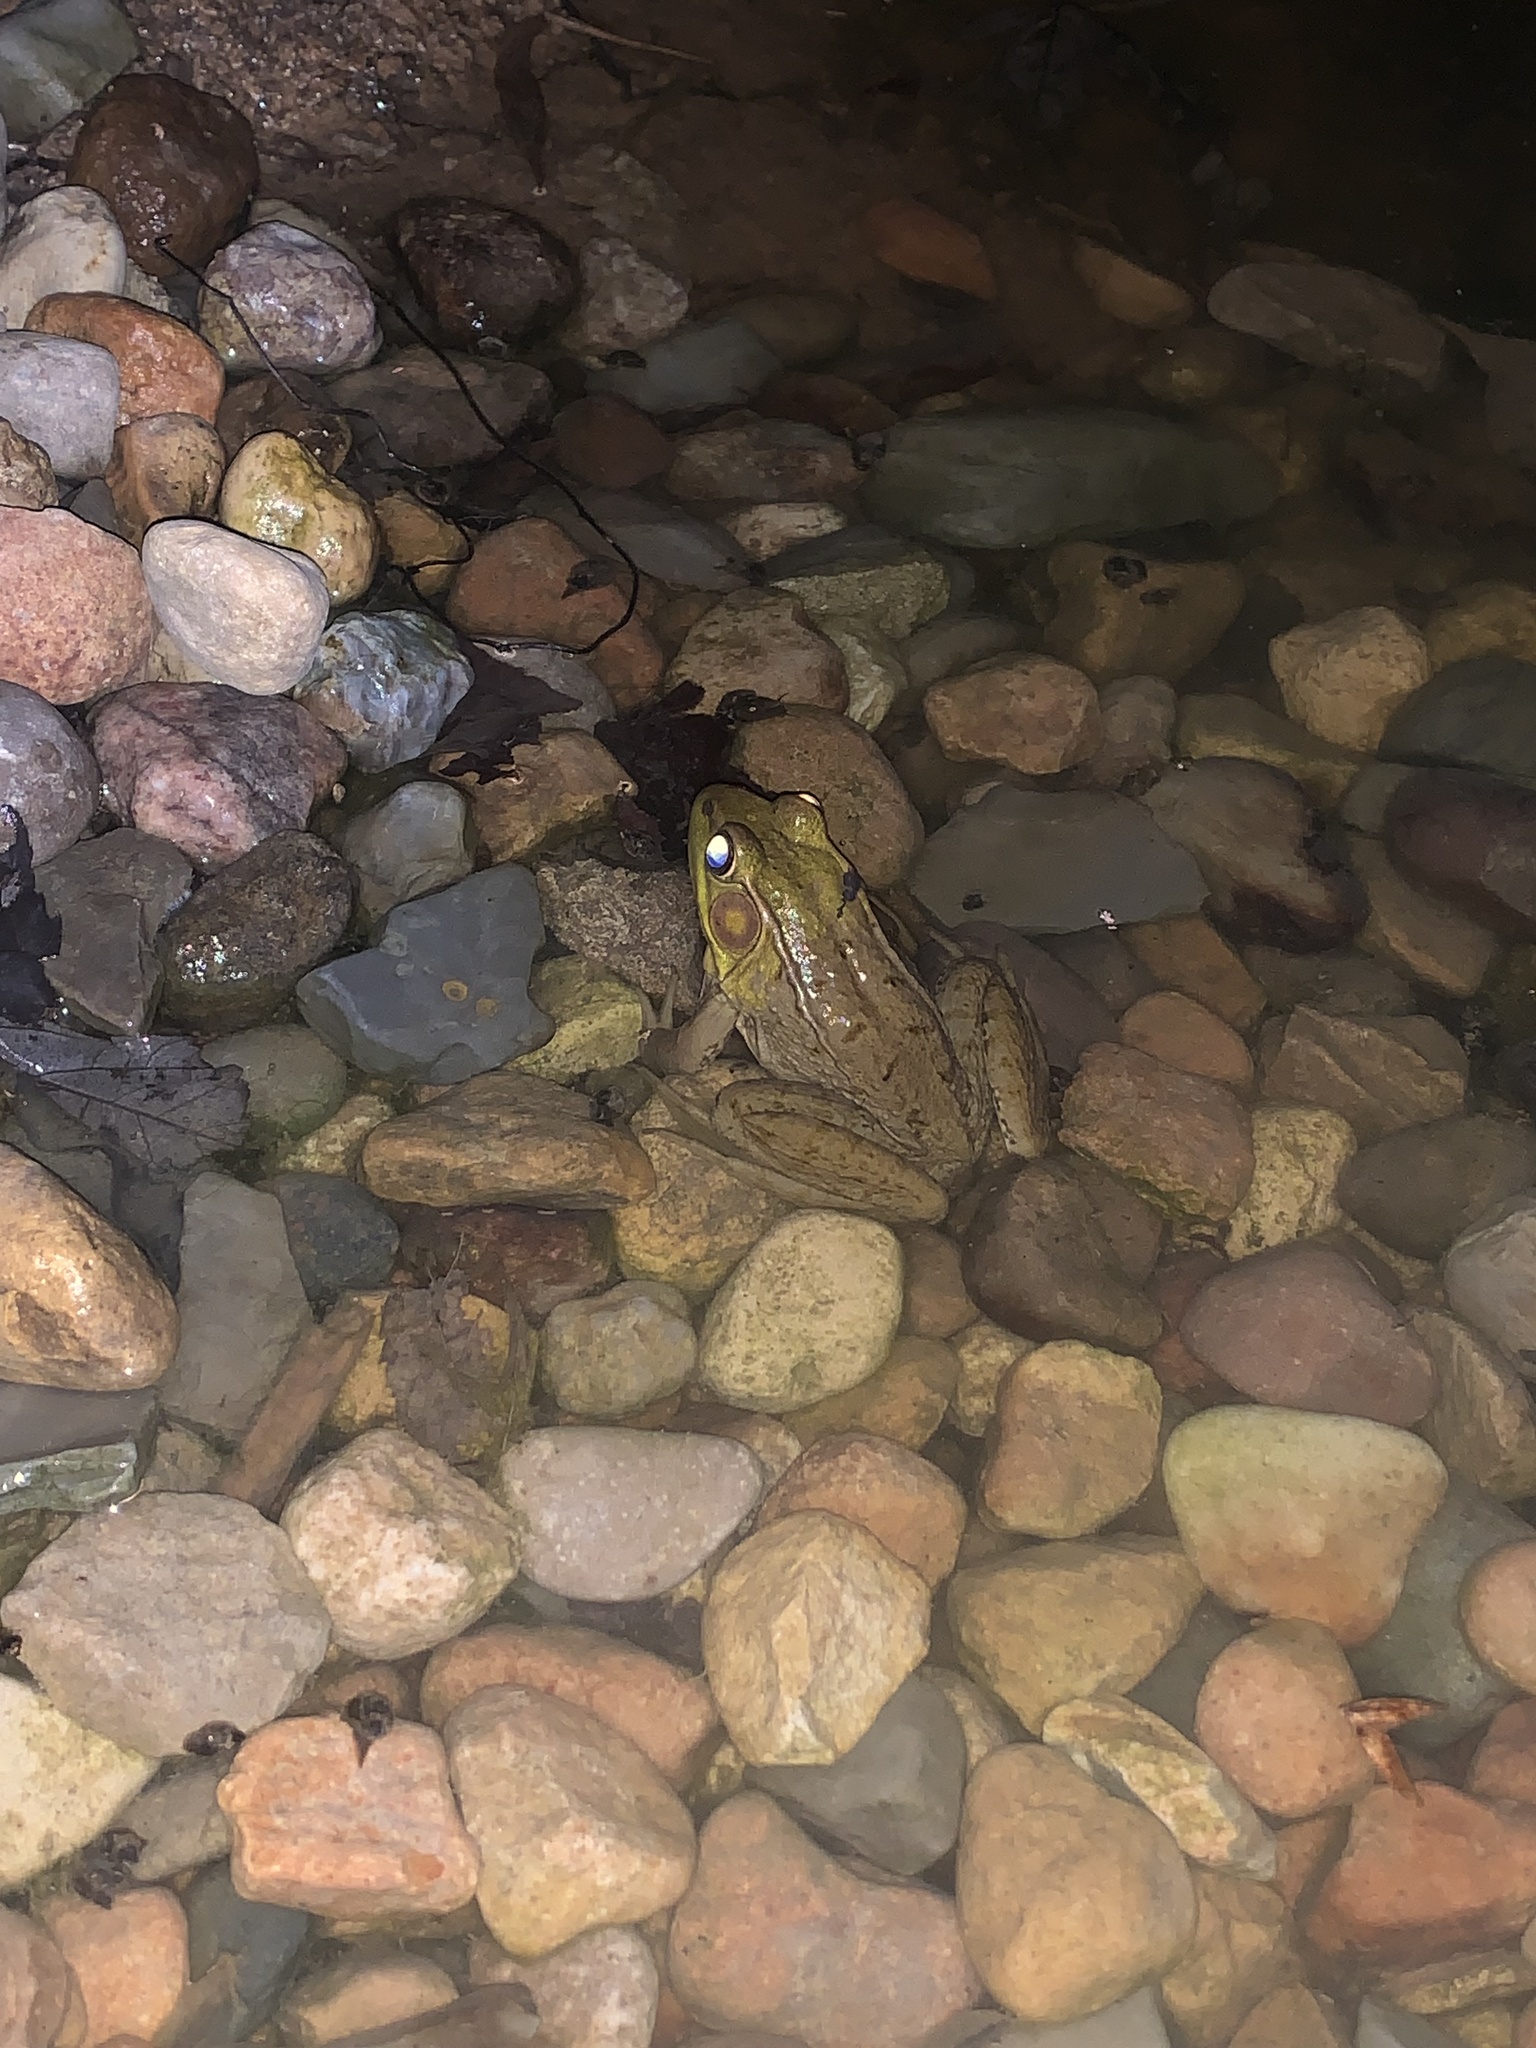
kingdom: Animalia
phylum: Chordata
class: Amphibia
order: Anura
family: Ranidae
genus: Lithobates
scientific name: Lithobates clamitans
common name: Green frog
